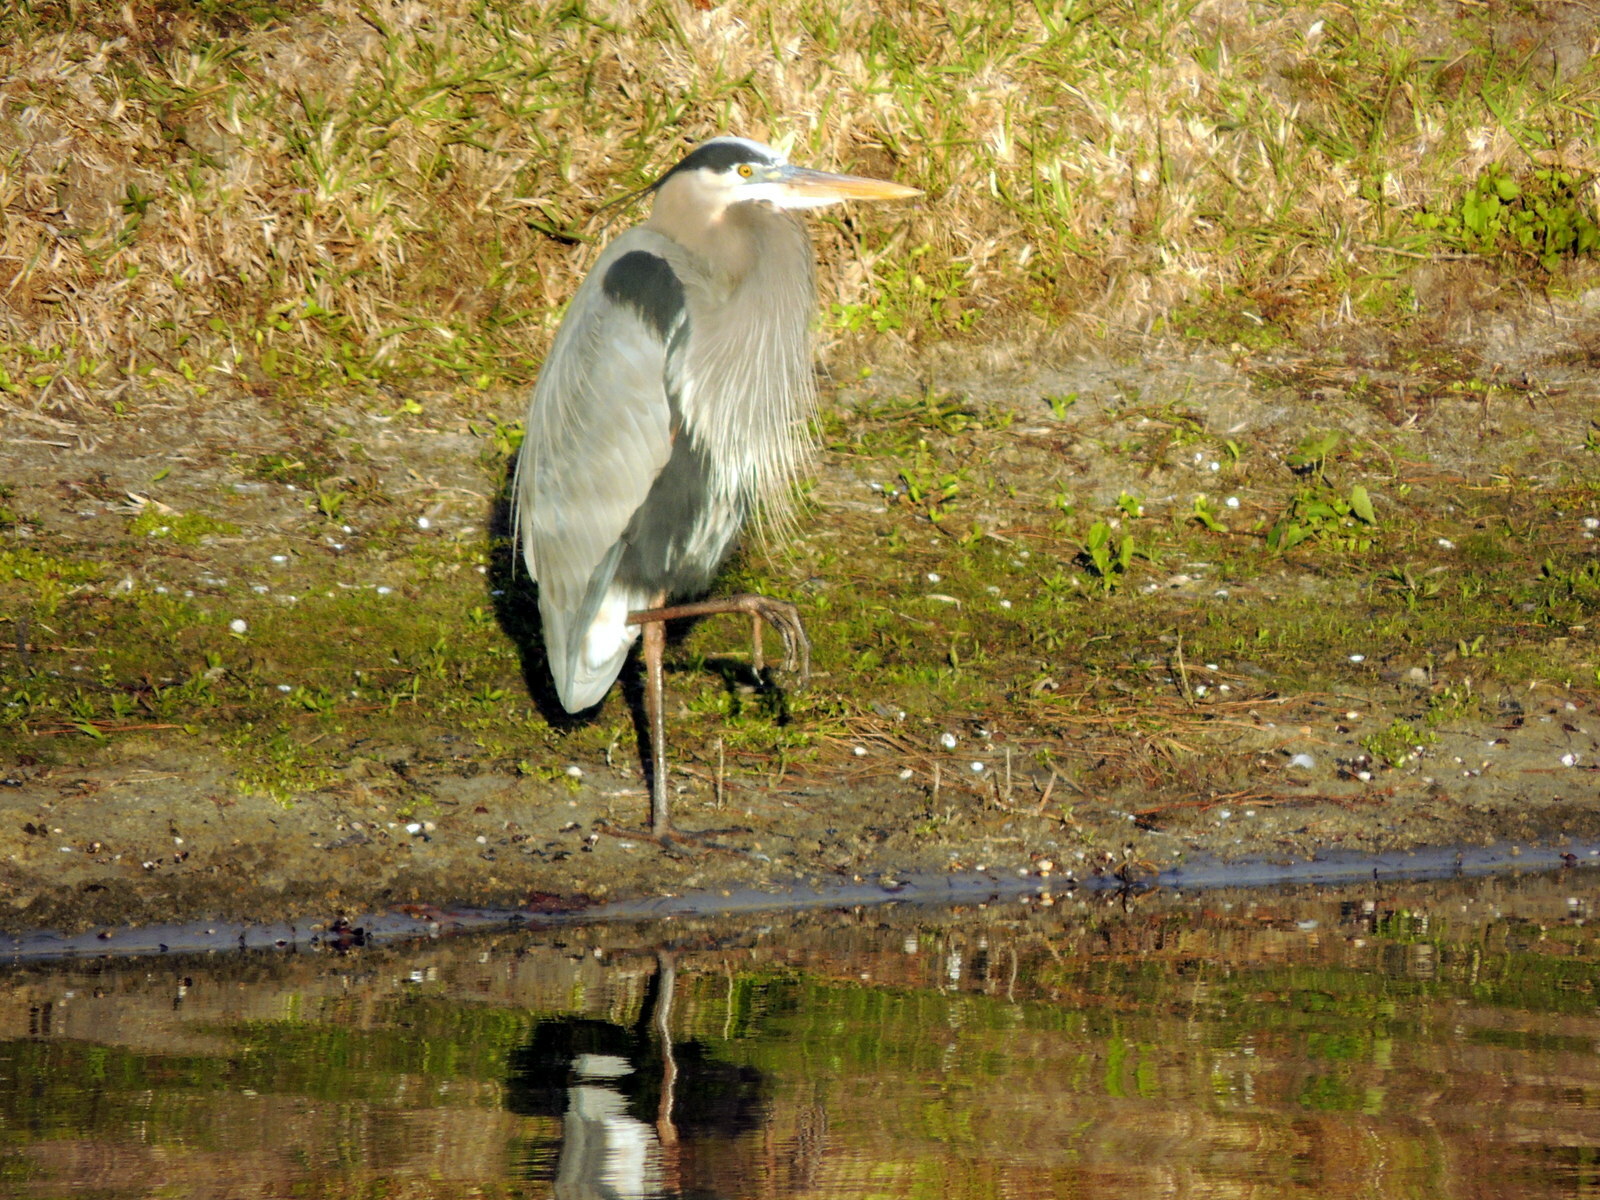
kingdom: Animalia
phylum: Chordata
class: Aves
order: Pelecaniformes
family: Ardeidae
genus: Ardea
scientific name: Ardea herodias
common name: Great blue heron
